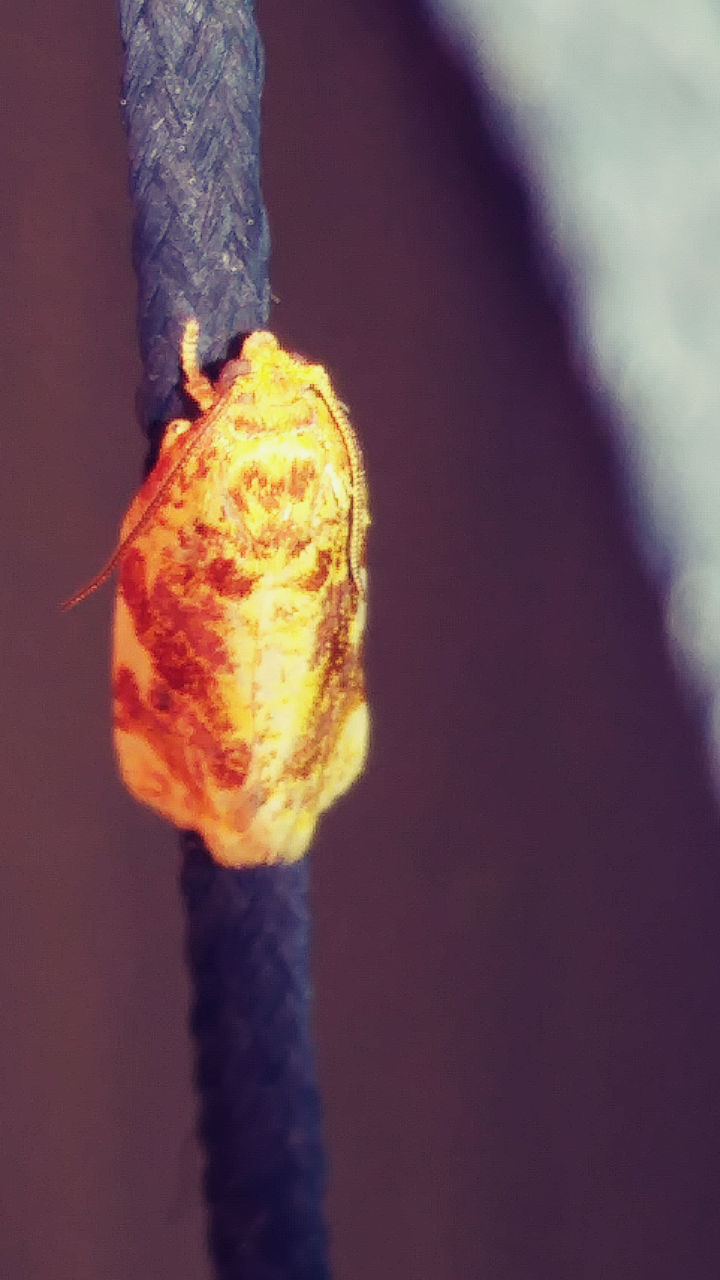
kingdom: Animalia
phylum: Arthropoda
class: Insecta
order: Lepidoptera
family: Tortricidae
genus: Archips
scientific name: Archips argyrospila
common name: Fruit-tree leafroller moth
